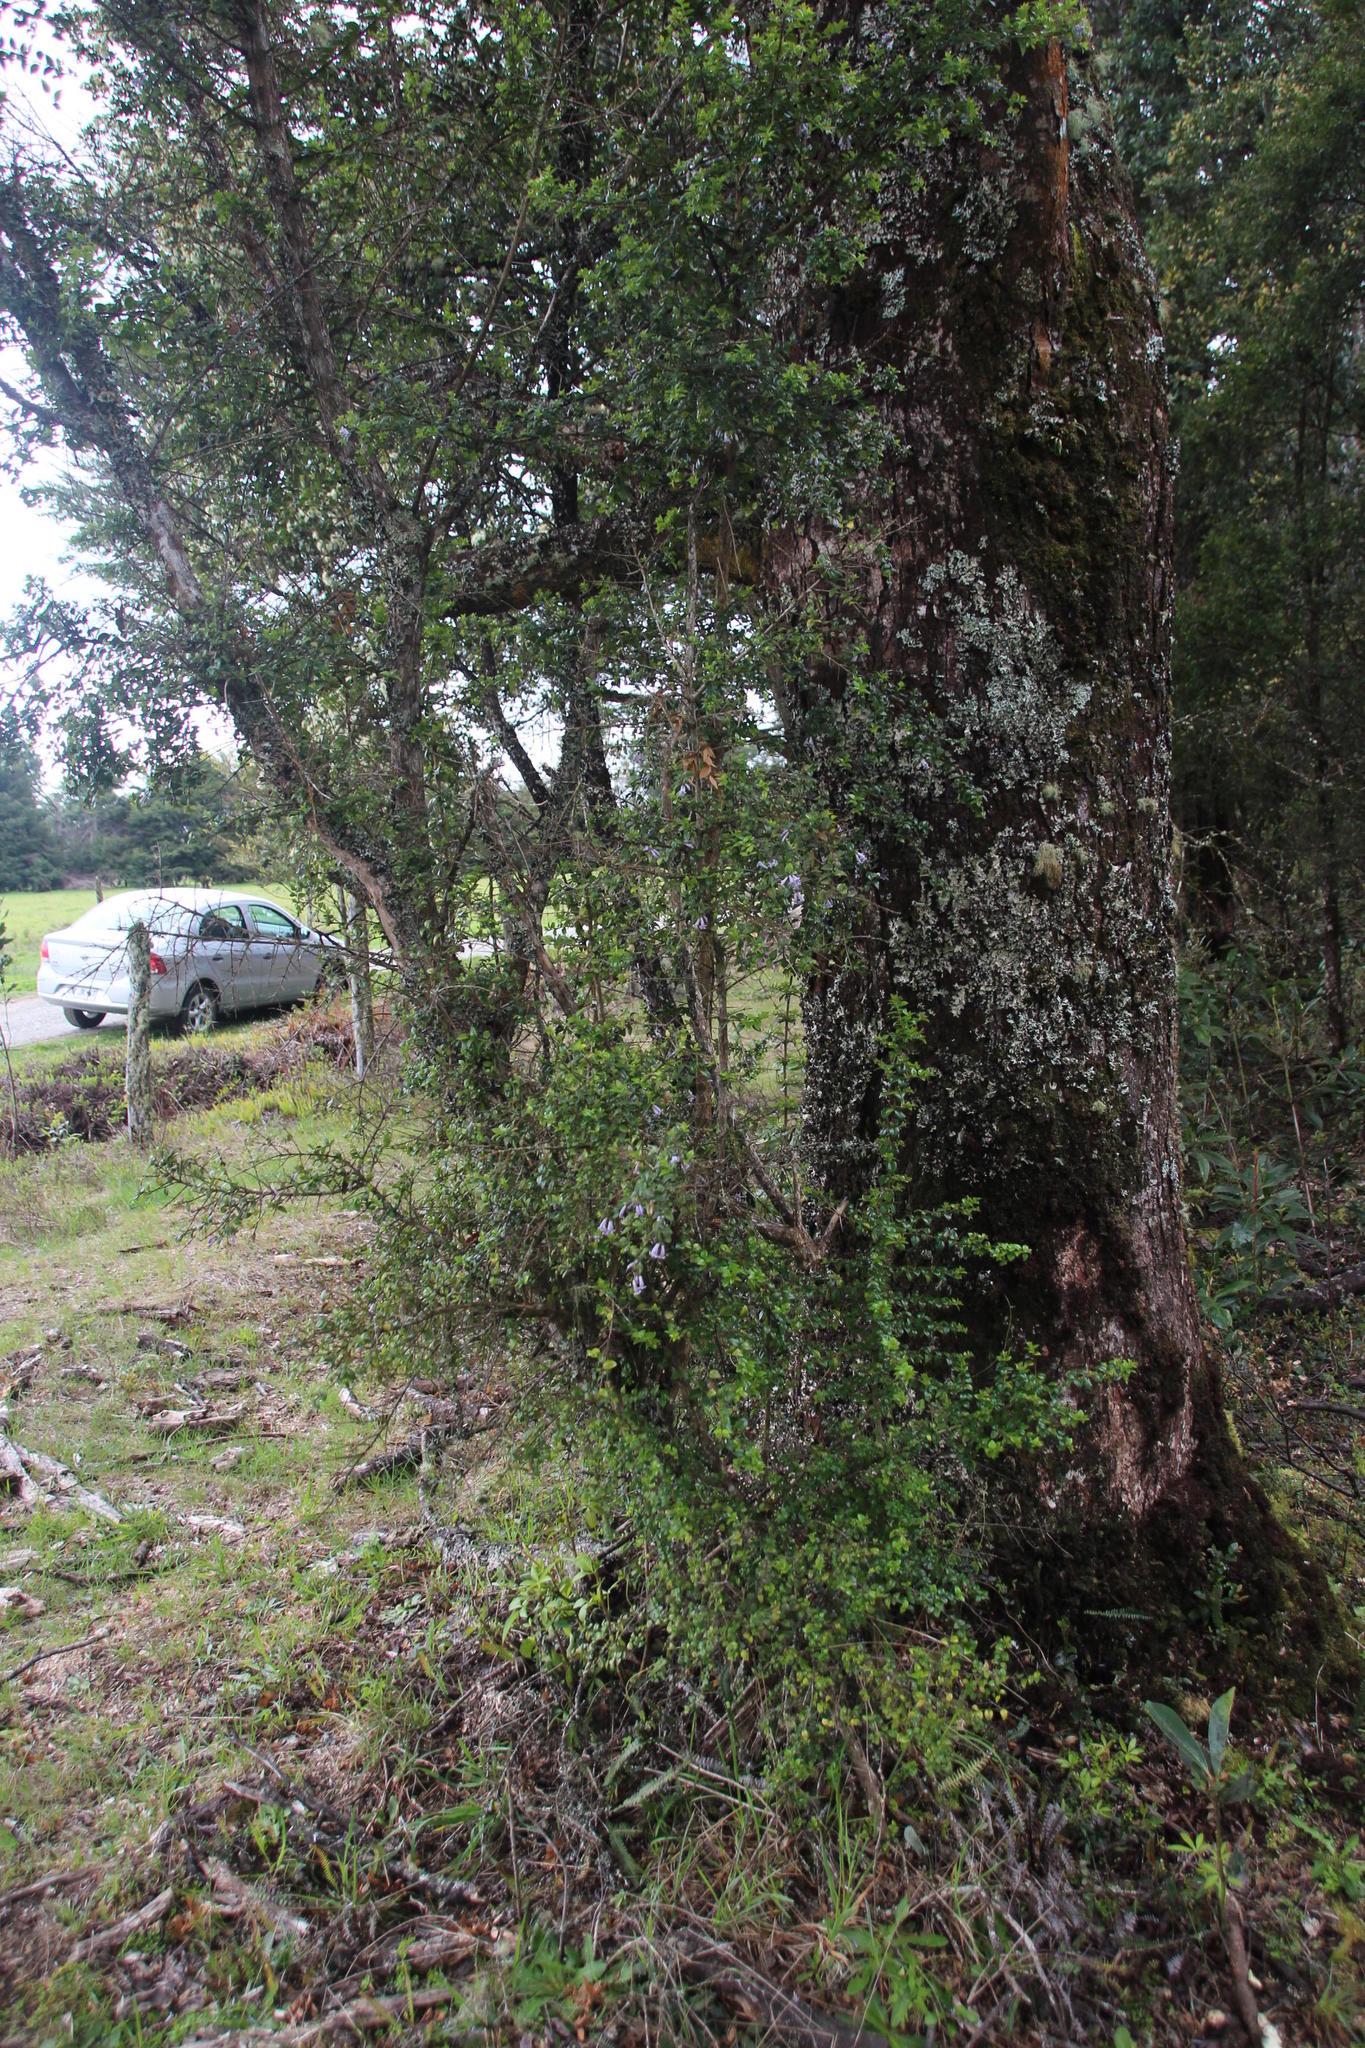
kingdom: Plantae
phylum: Tracheophyta
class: Magnoliopsida
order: Lamiales
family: Verbenaceae
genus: Rhaphithamnus
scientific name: Rhaphithamnus spinosus
